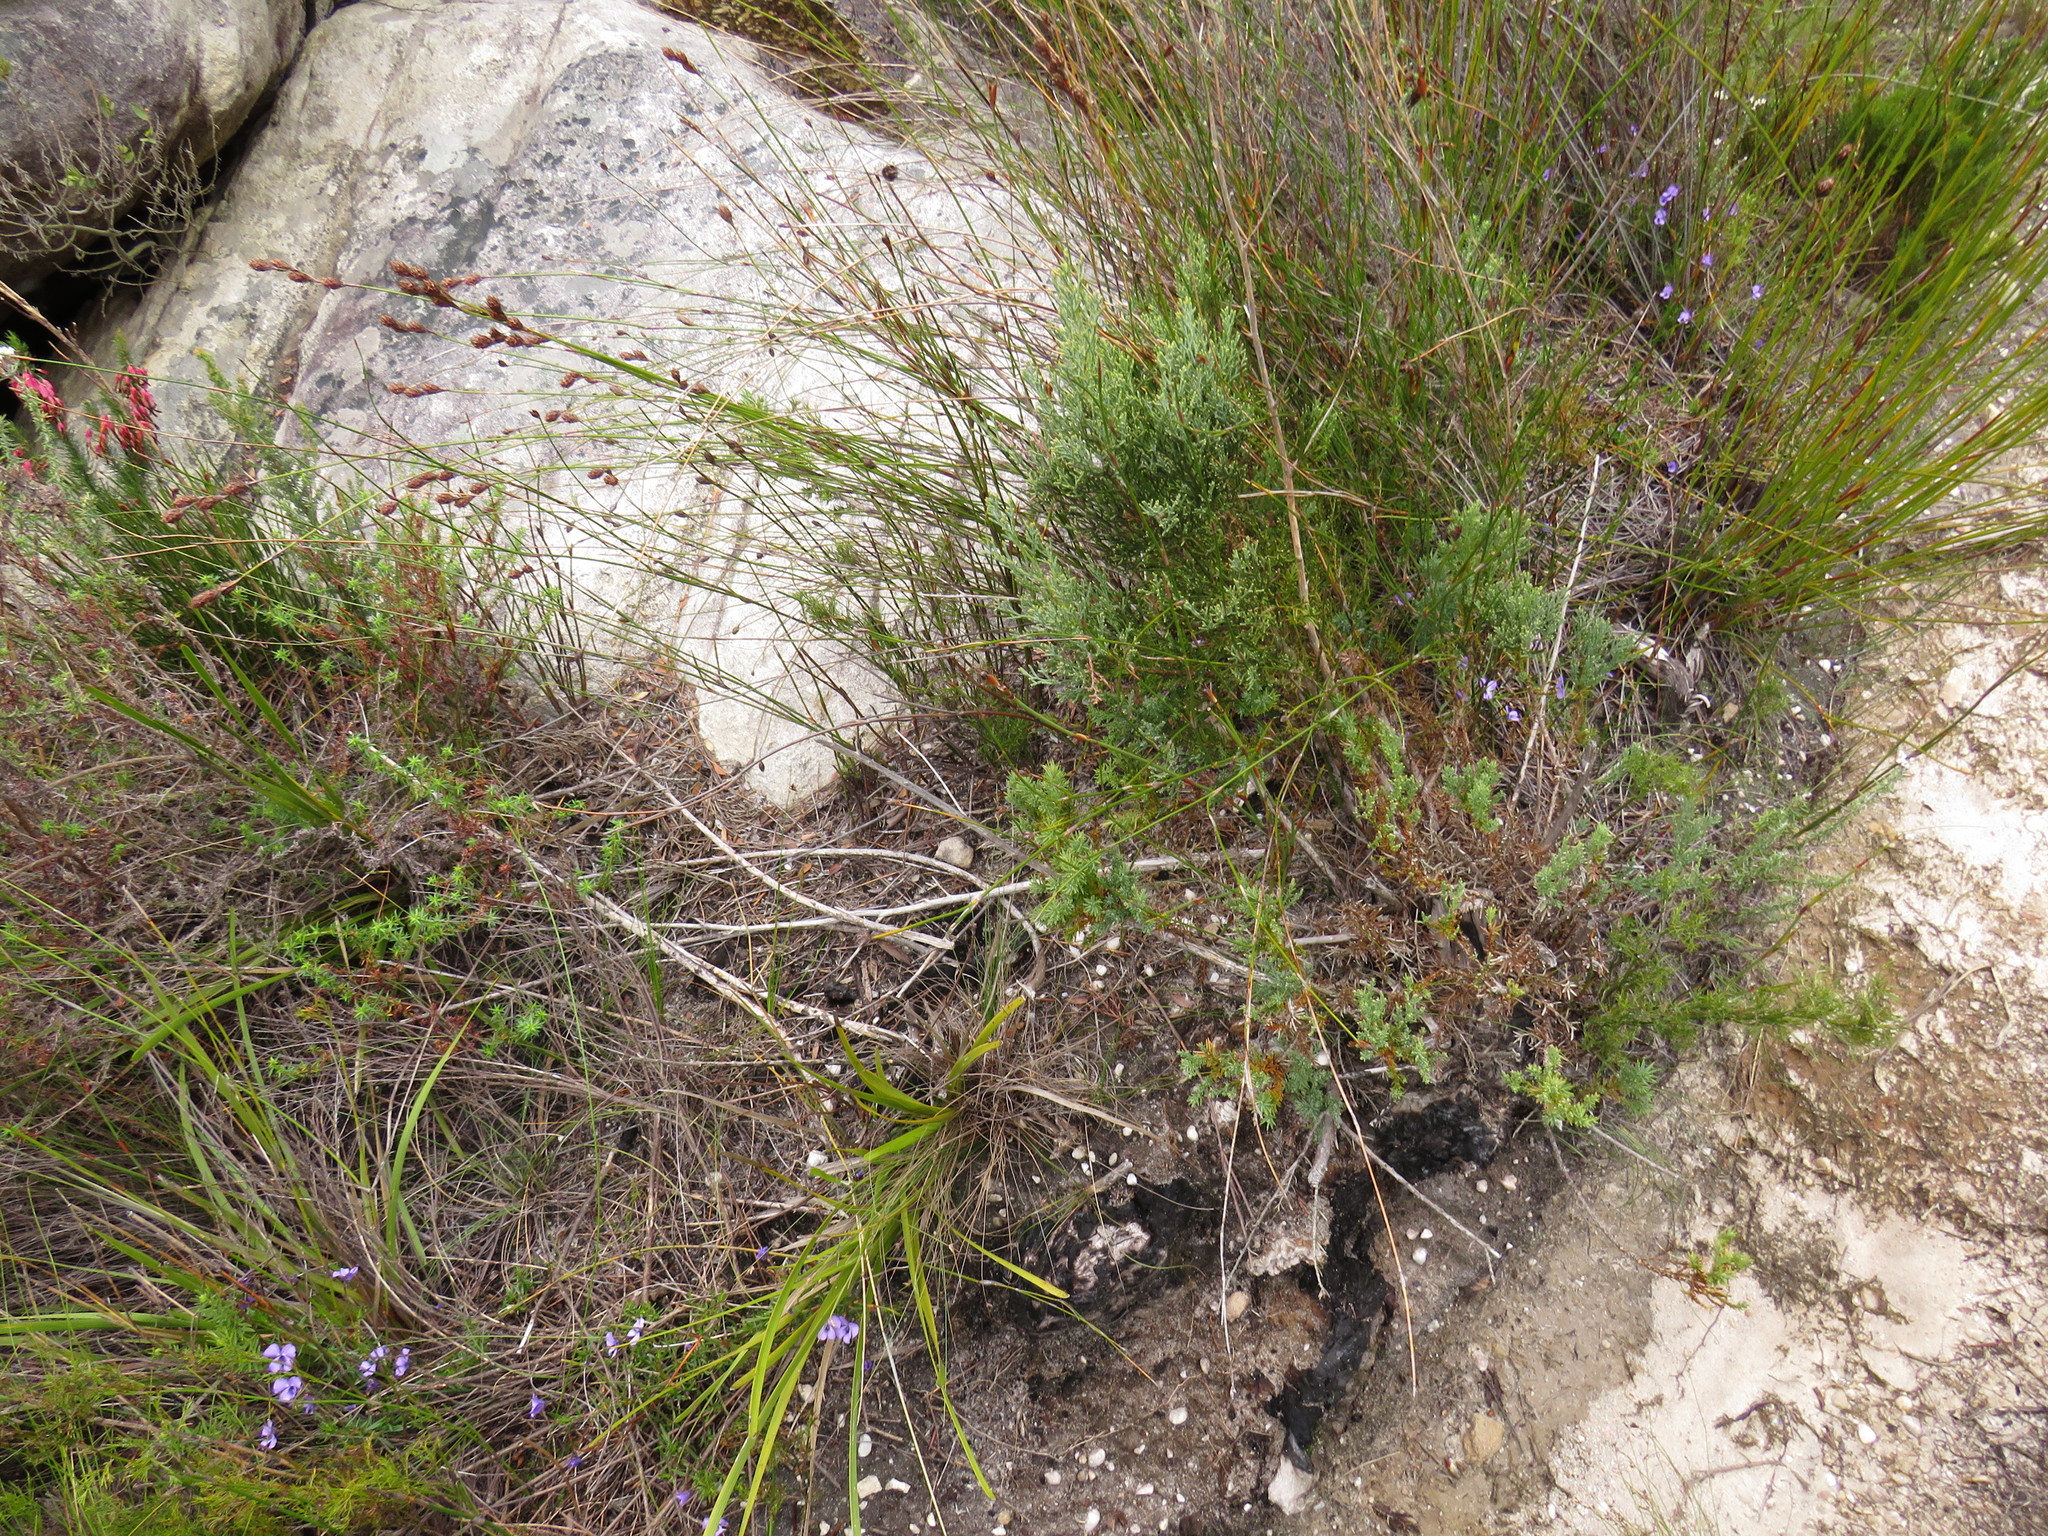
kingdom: Plantae
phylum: Tracheophyta
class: Magnoliopsida
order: Malpighiales
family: Violaceae
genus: Viola
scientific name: Viola decumbens
